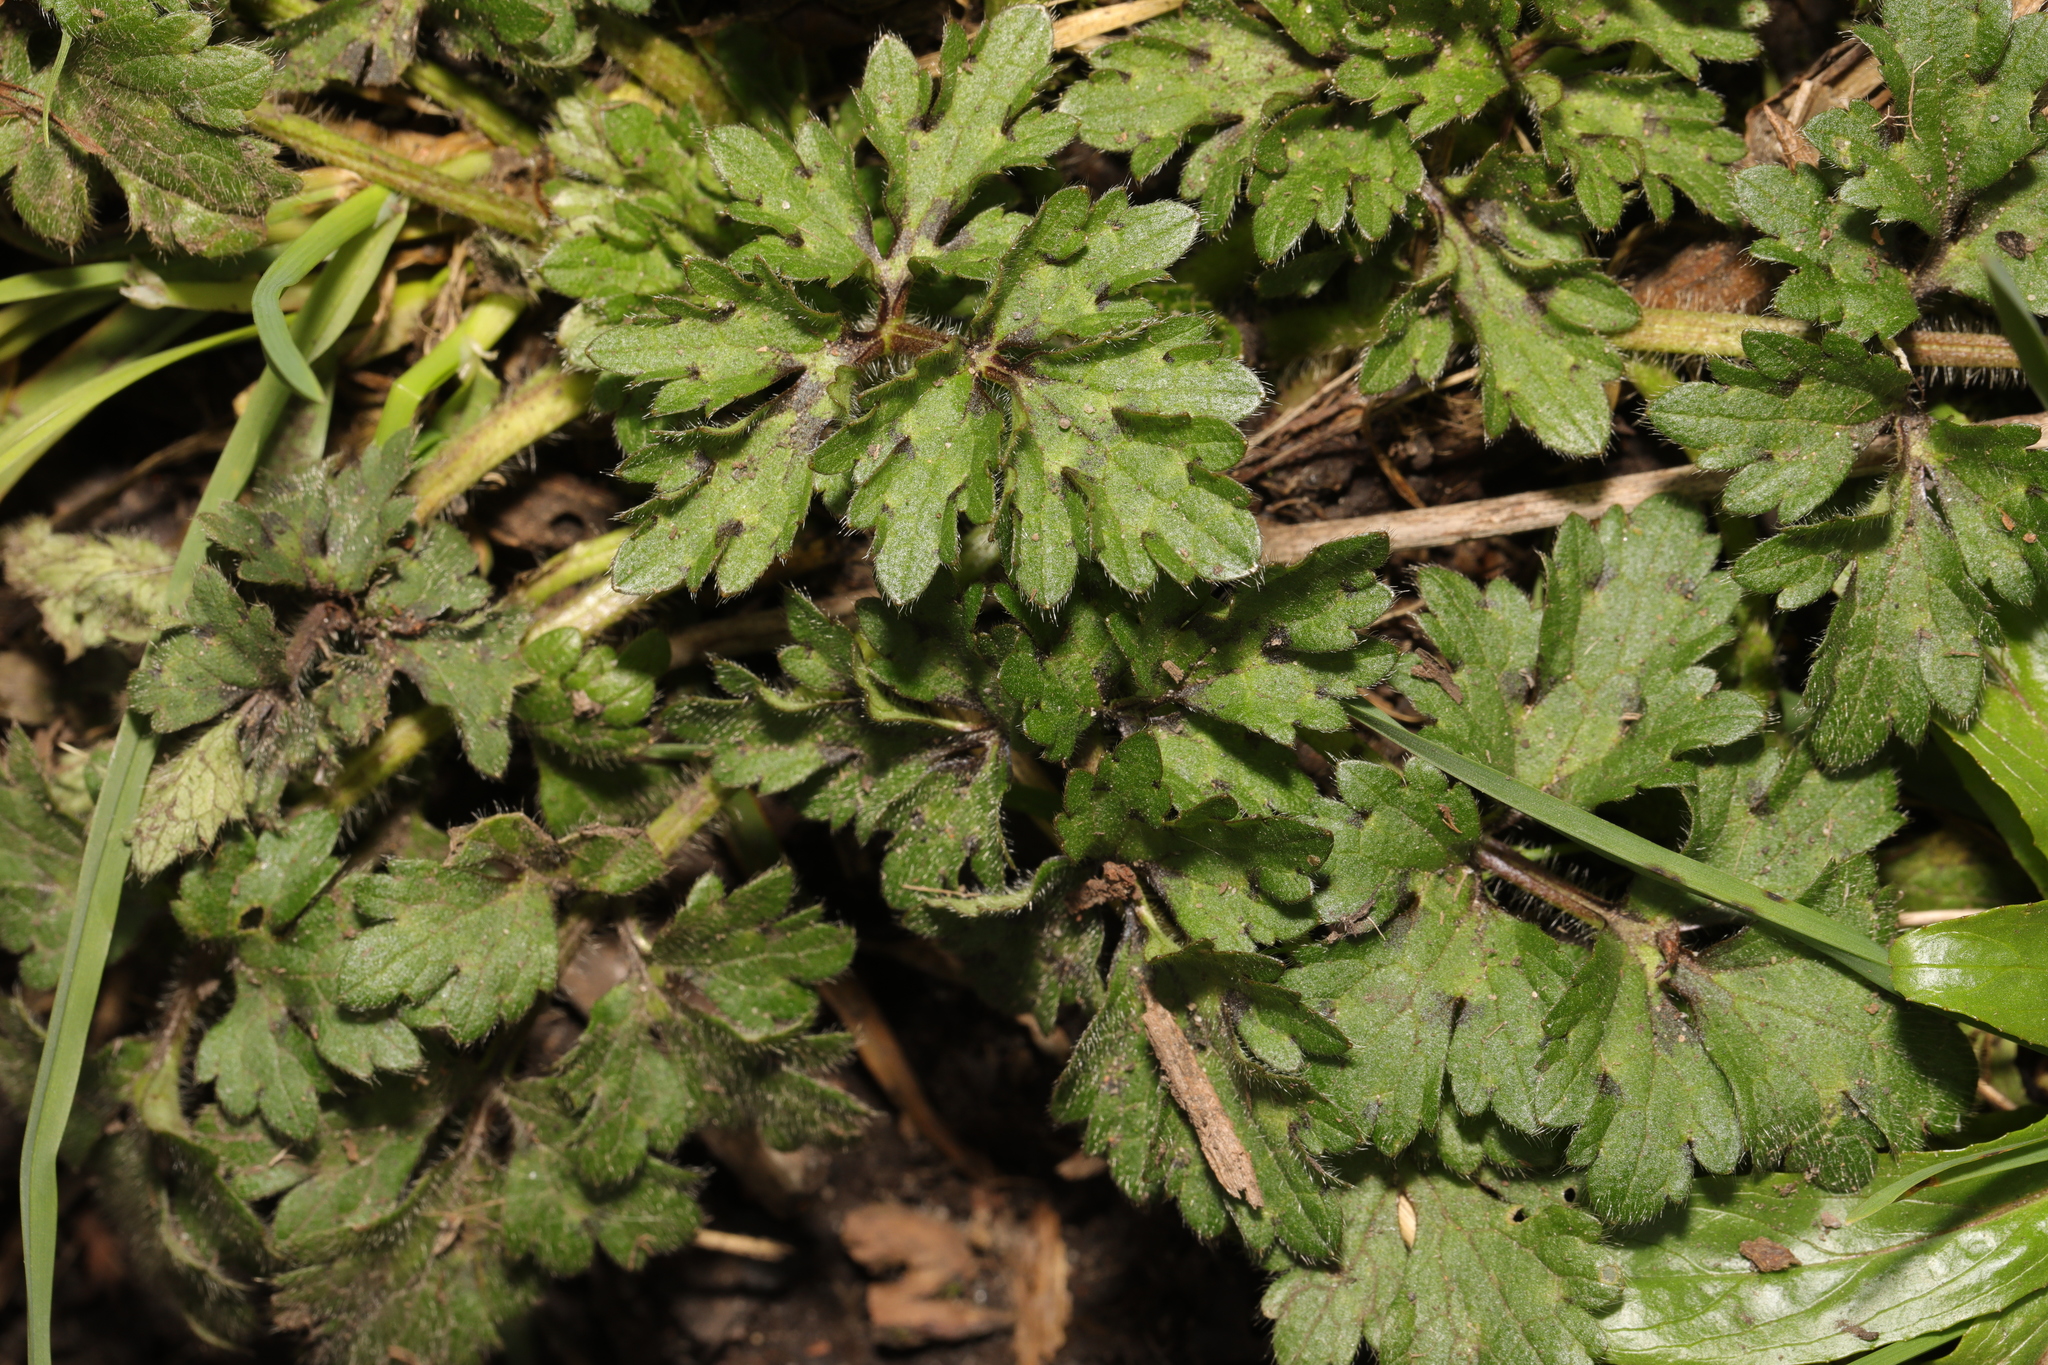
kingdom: Plantae
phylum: Tracheophyta
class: Magnoliopsida
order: Ranunculales
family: Ranunculaceae
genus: Ranunculus
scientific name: Ranunculus repens
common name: Creeping buttercup
